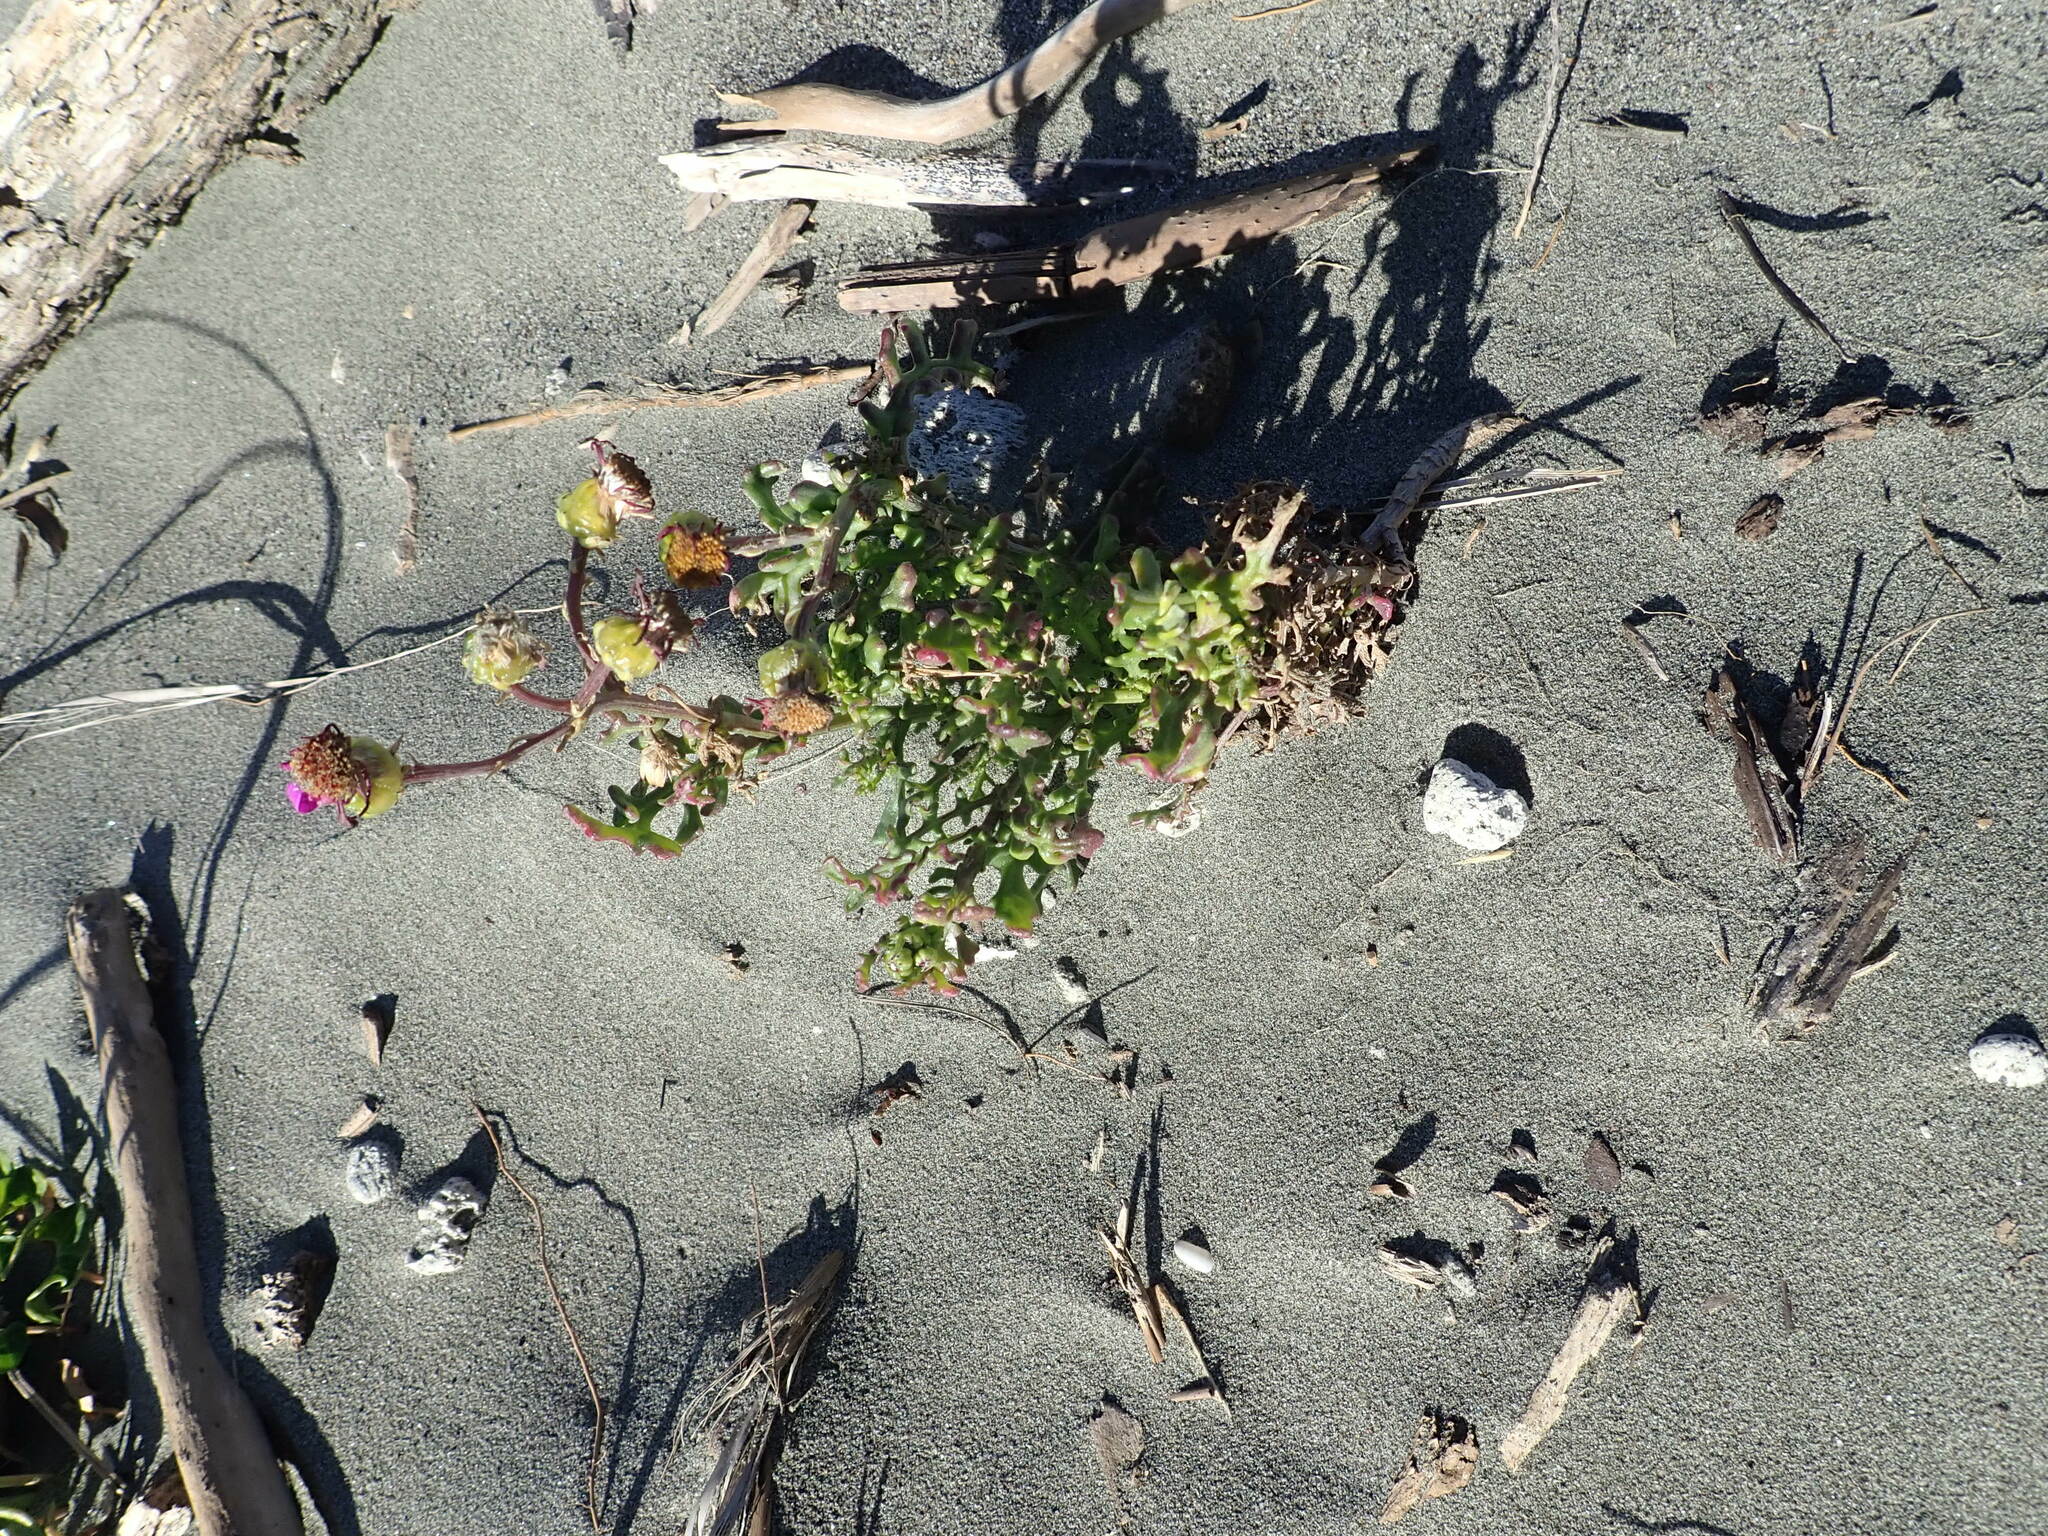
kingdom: Plantae
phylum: Tracheophyta
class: Magnoliopsida
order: Asterales
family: Asteraceae
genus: Senecio
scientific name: Senecio elegans
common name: Purple groundsel
